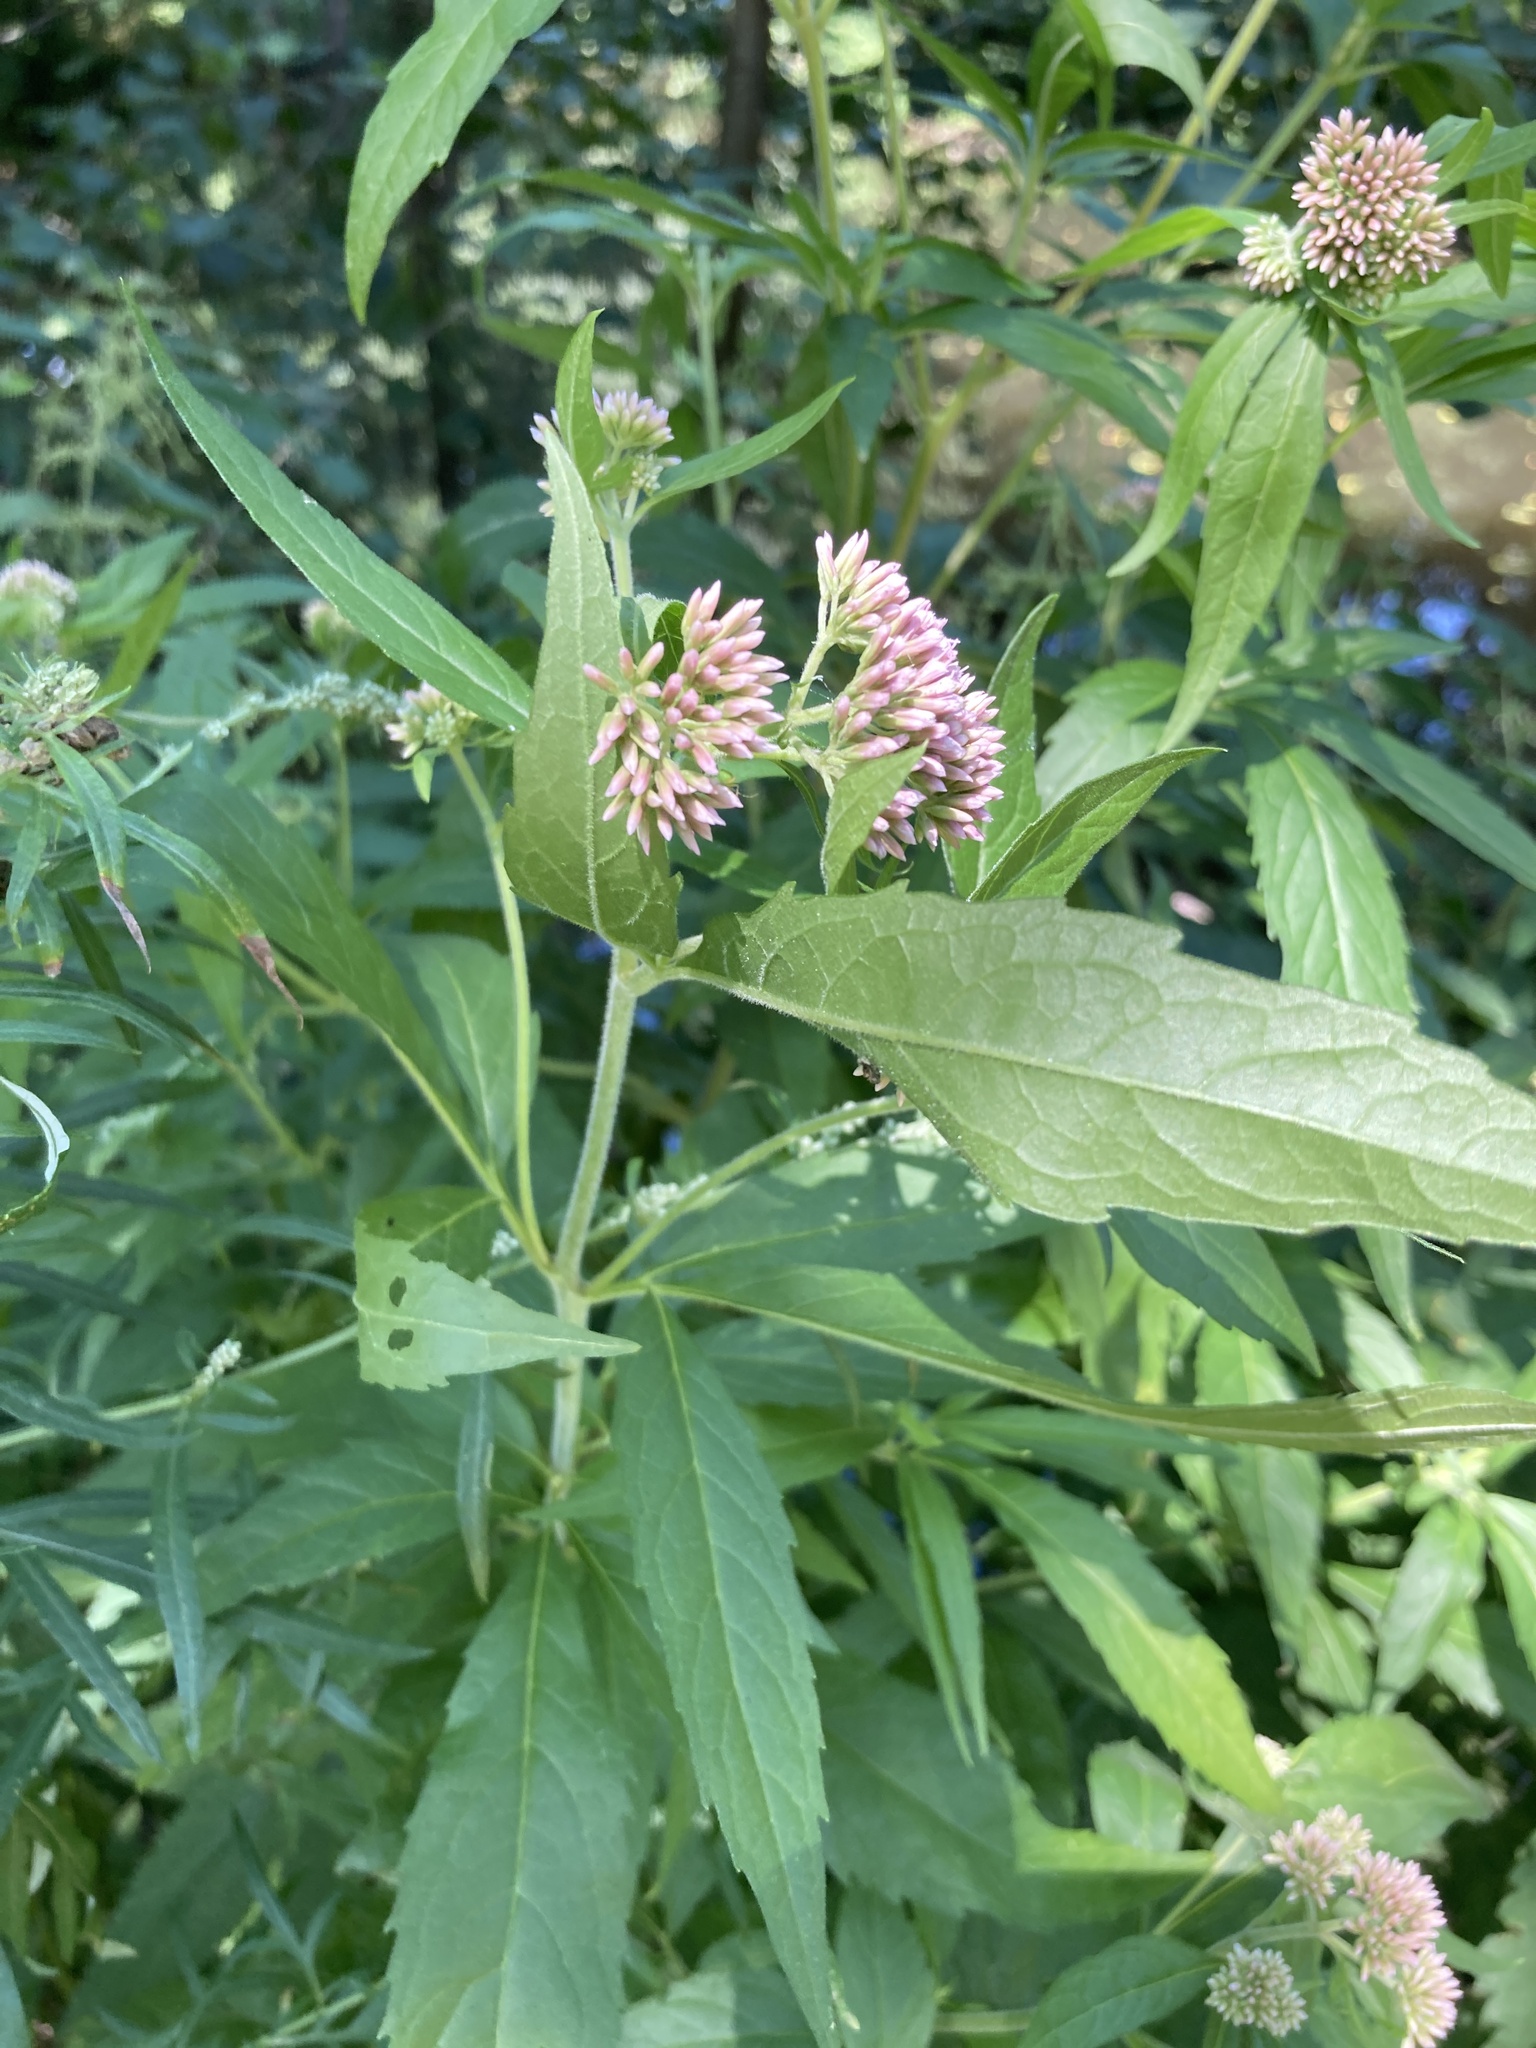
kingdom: Plantae
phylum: Tracheophyta
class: Magnoliopsida
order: Asterales
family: Asteraceae
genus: Eupatorium
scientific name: Eupatorium cannabinum
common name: Hemp-agrimony
